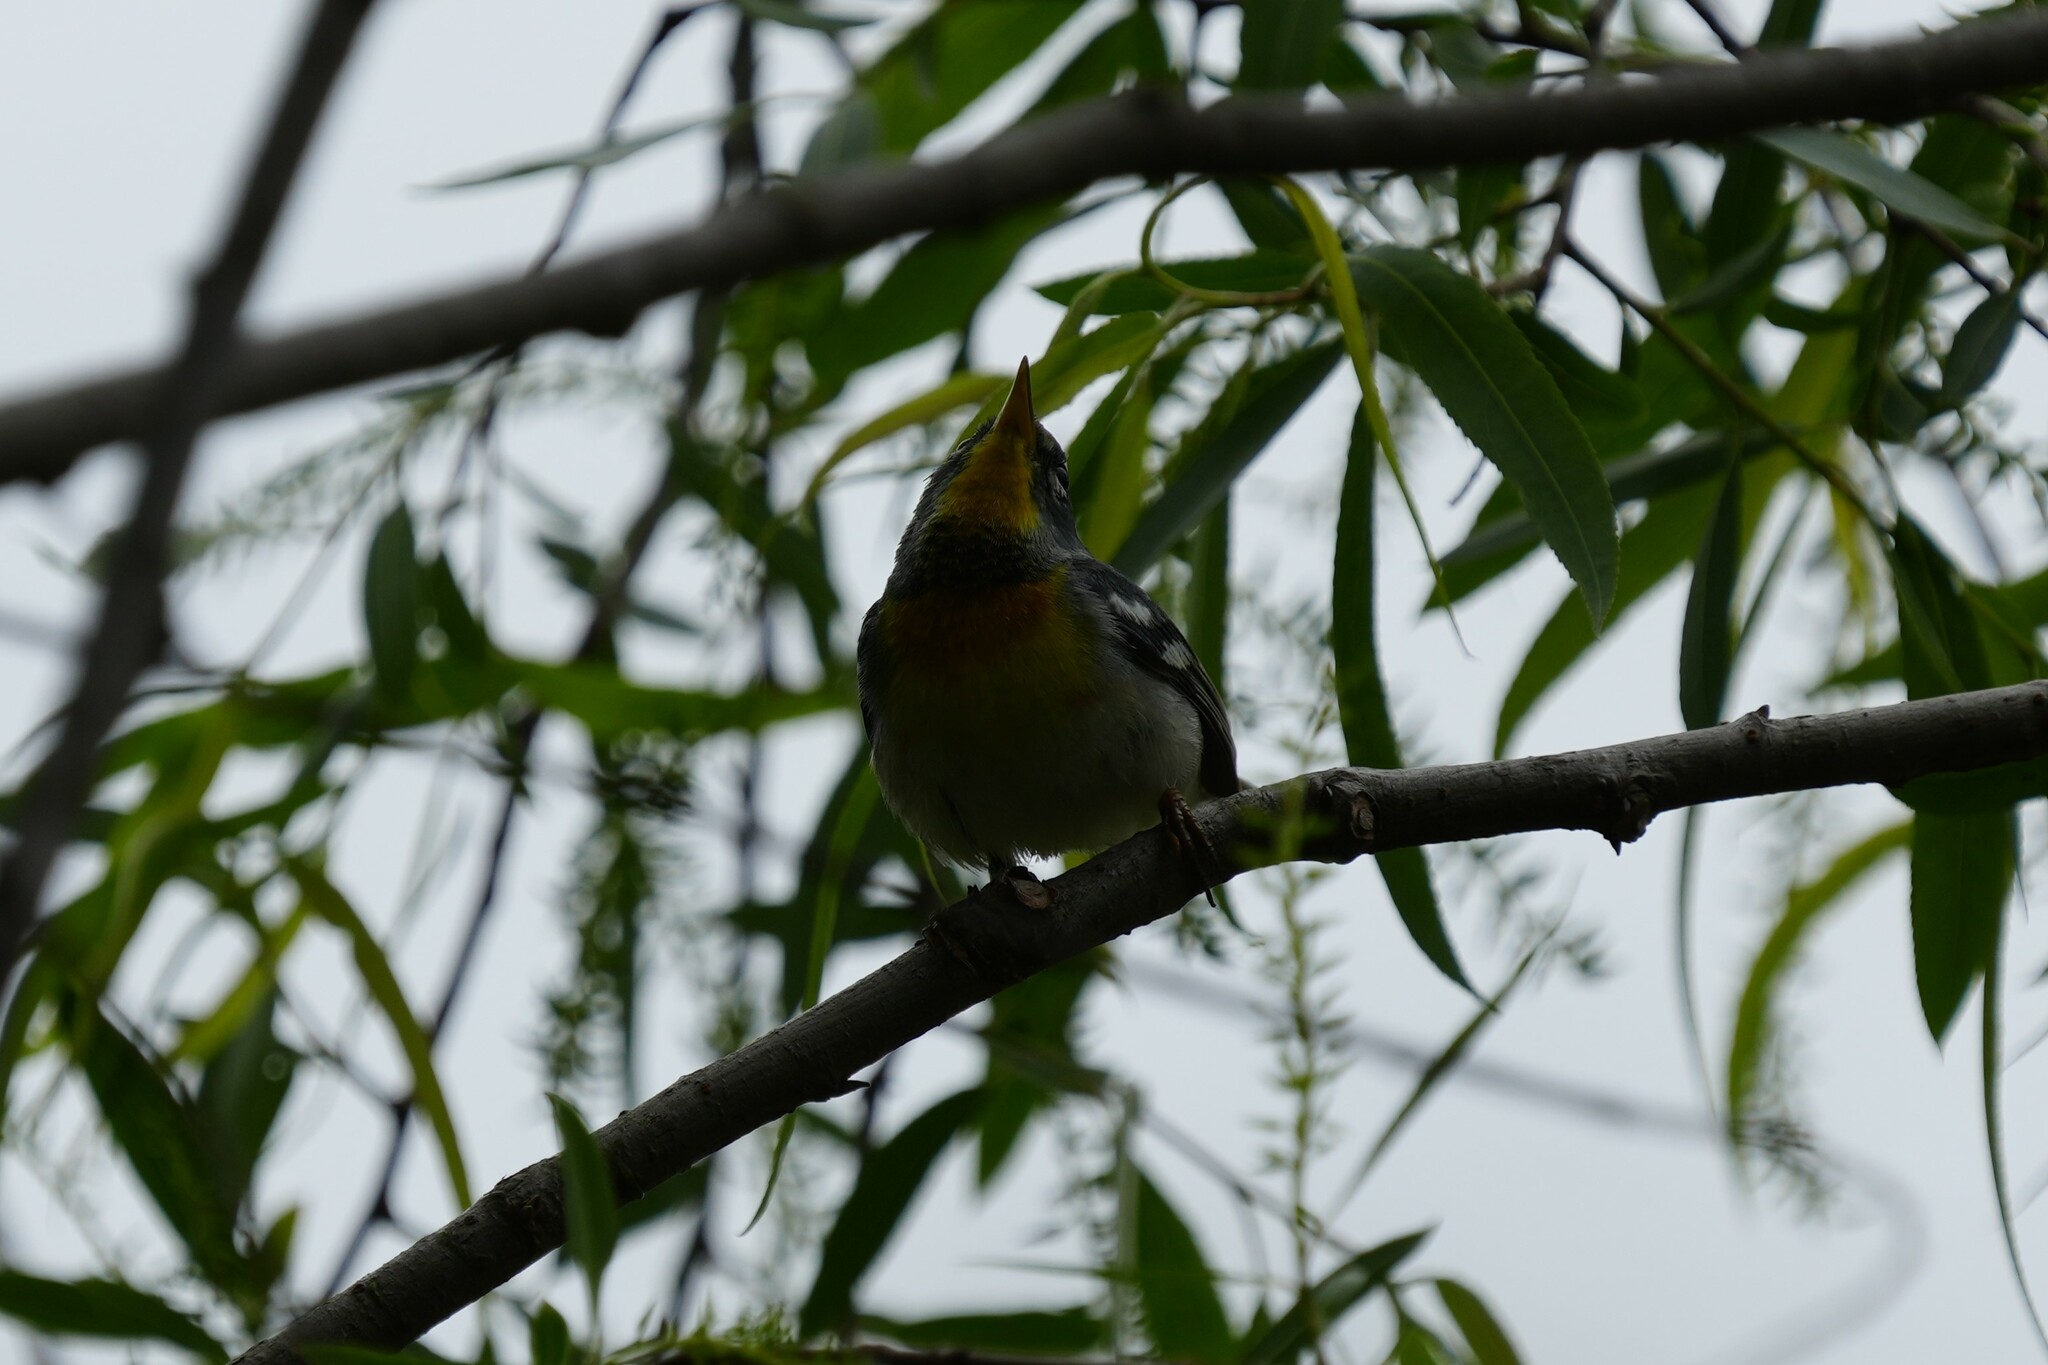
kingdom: Animalia
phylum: Chordata
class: Aves
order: Passeriformes
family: Parulidae
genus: Setophaga
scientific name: Setophaga americana
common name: Northern parula
